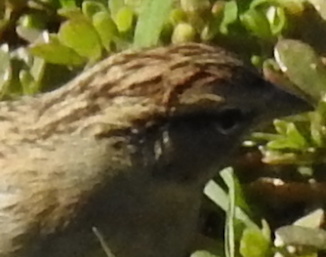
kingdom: Animalia
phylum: Chordata
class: Aves
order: Passeriformes
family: Passerellidae
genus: Spizella
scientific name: Spizella passerina
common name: Chipping sparrow
